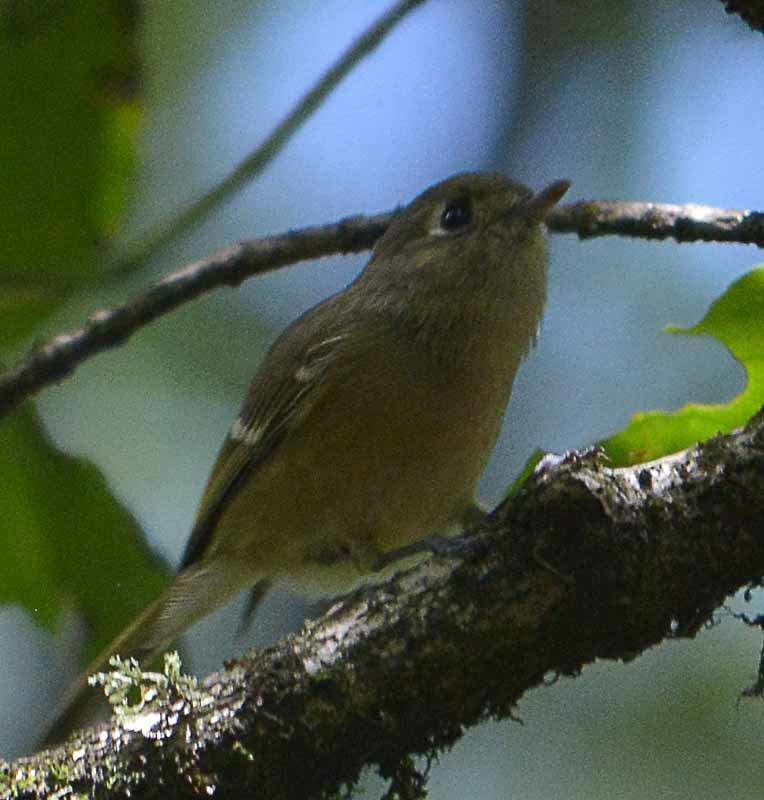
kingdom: Animalia
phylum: Chordata
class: Aves
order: Passeriformes
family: Vireonidae
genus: Vireo
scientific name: Vireo huttoni
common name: Hutton's vireo
